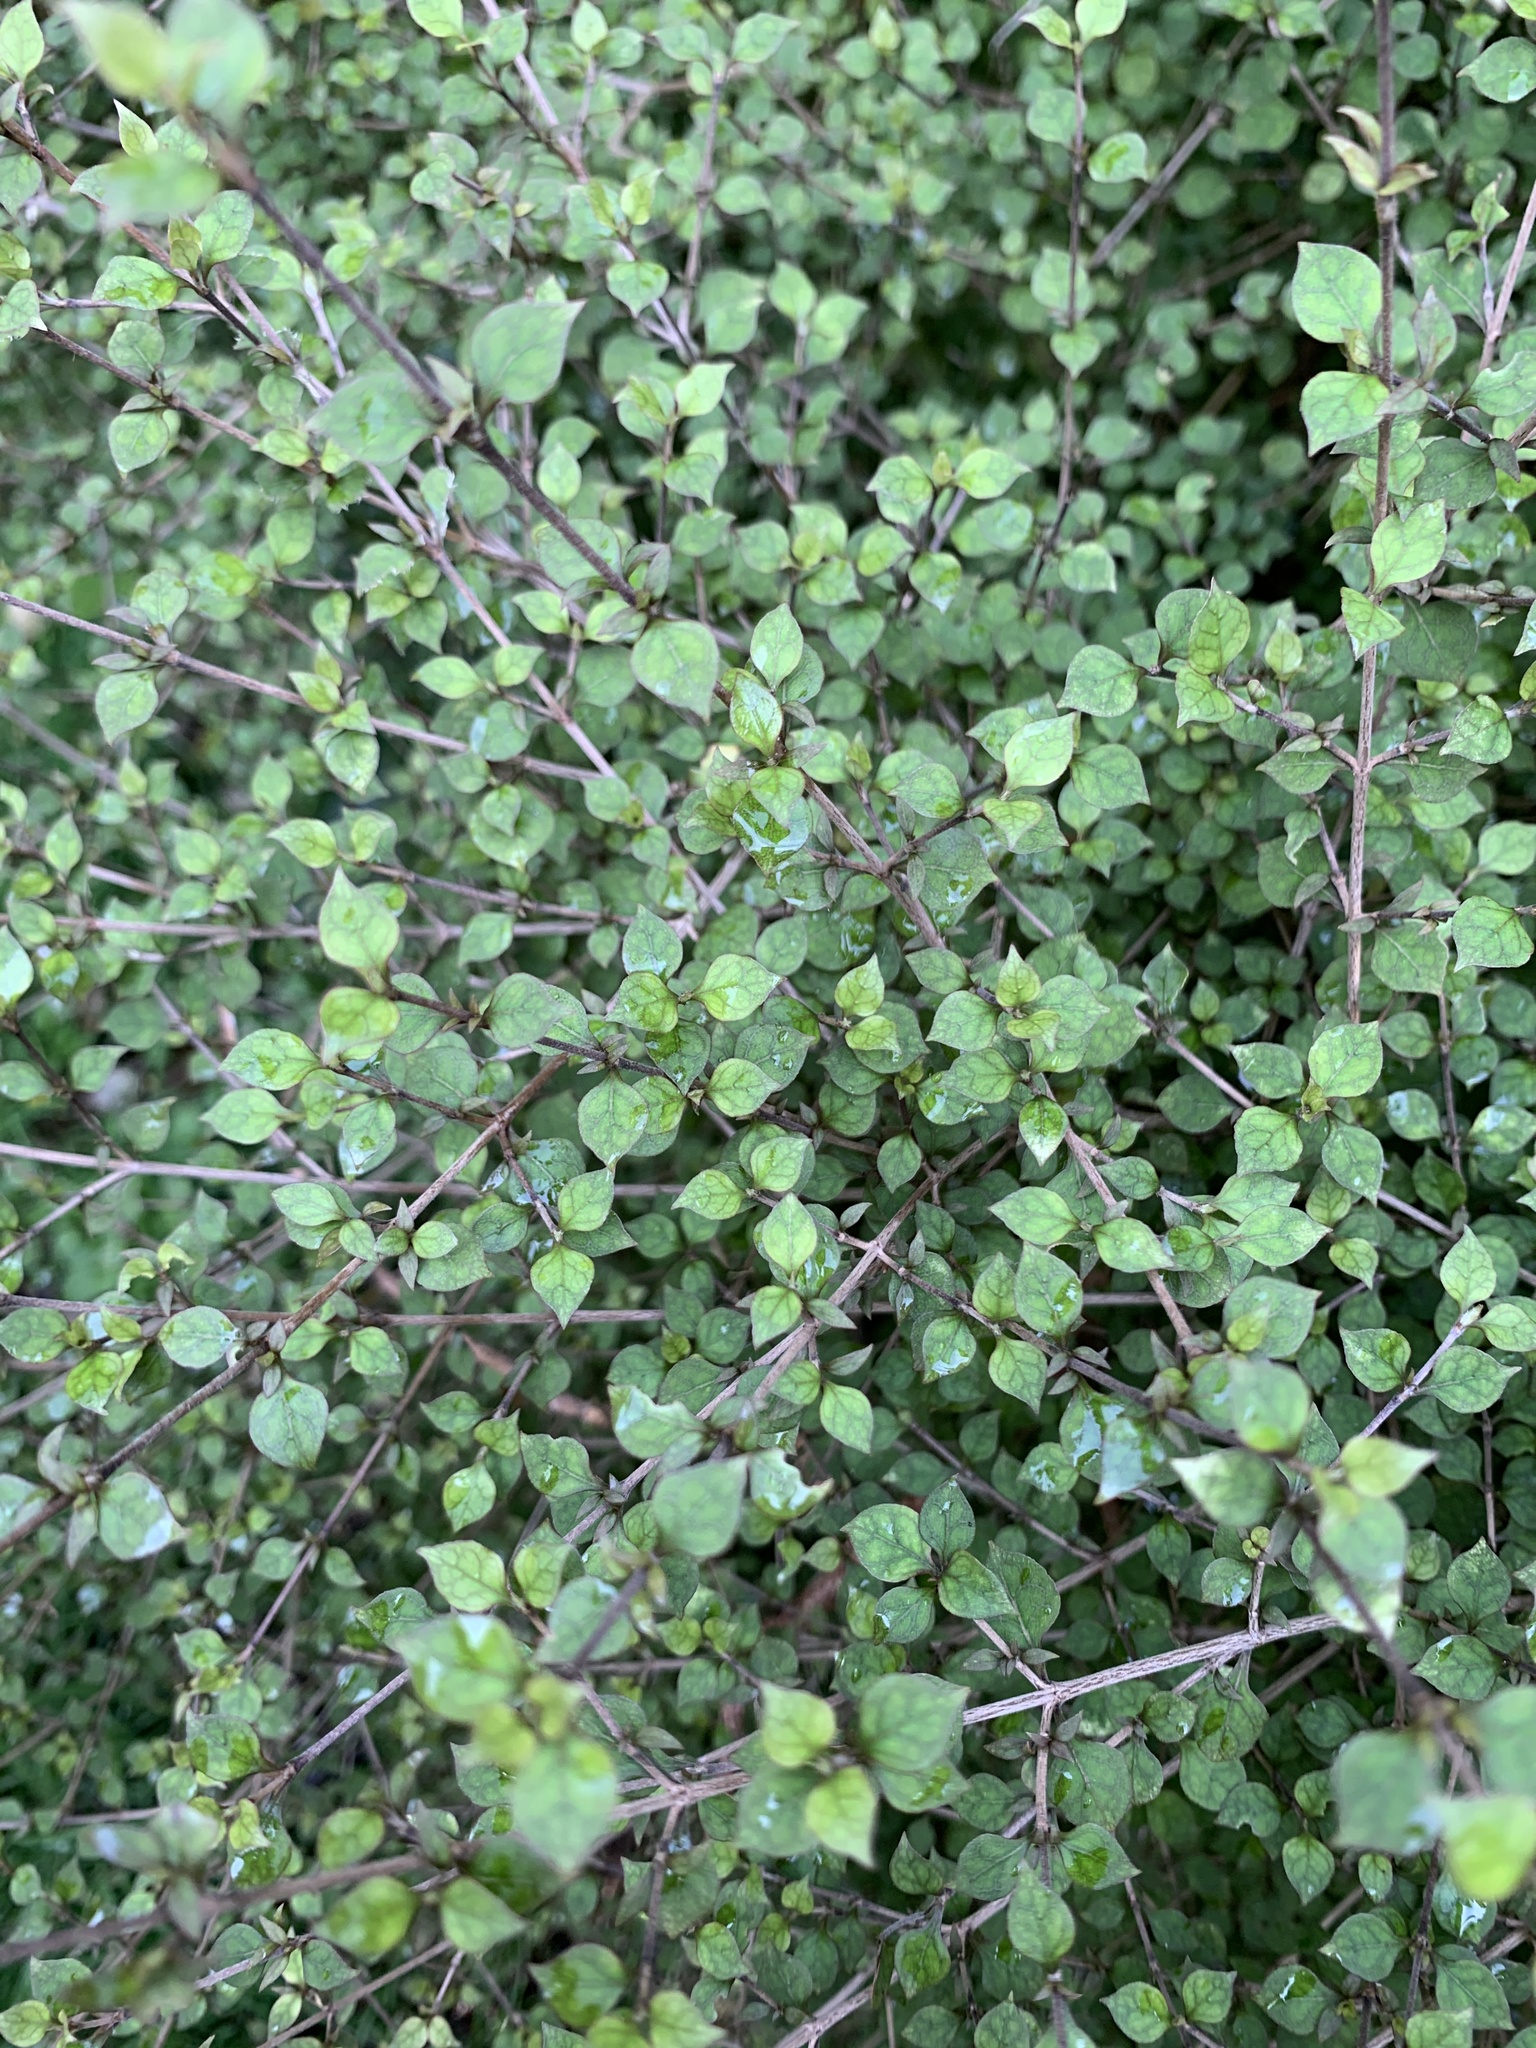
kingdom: Plantae
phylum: Tracheophyta
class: Magnoliopsida
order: Gentianales
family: Rubiaceae
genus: Coprosma
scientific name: Coprosma areolata
